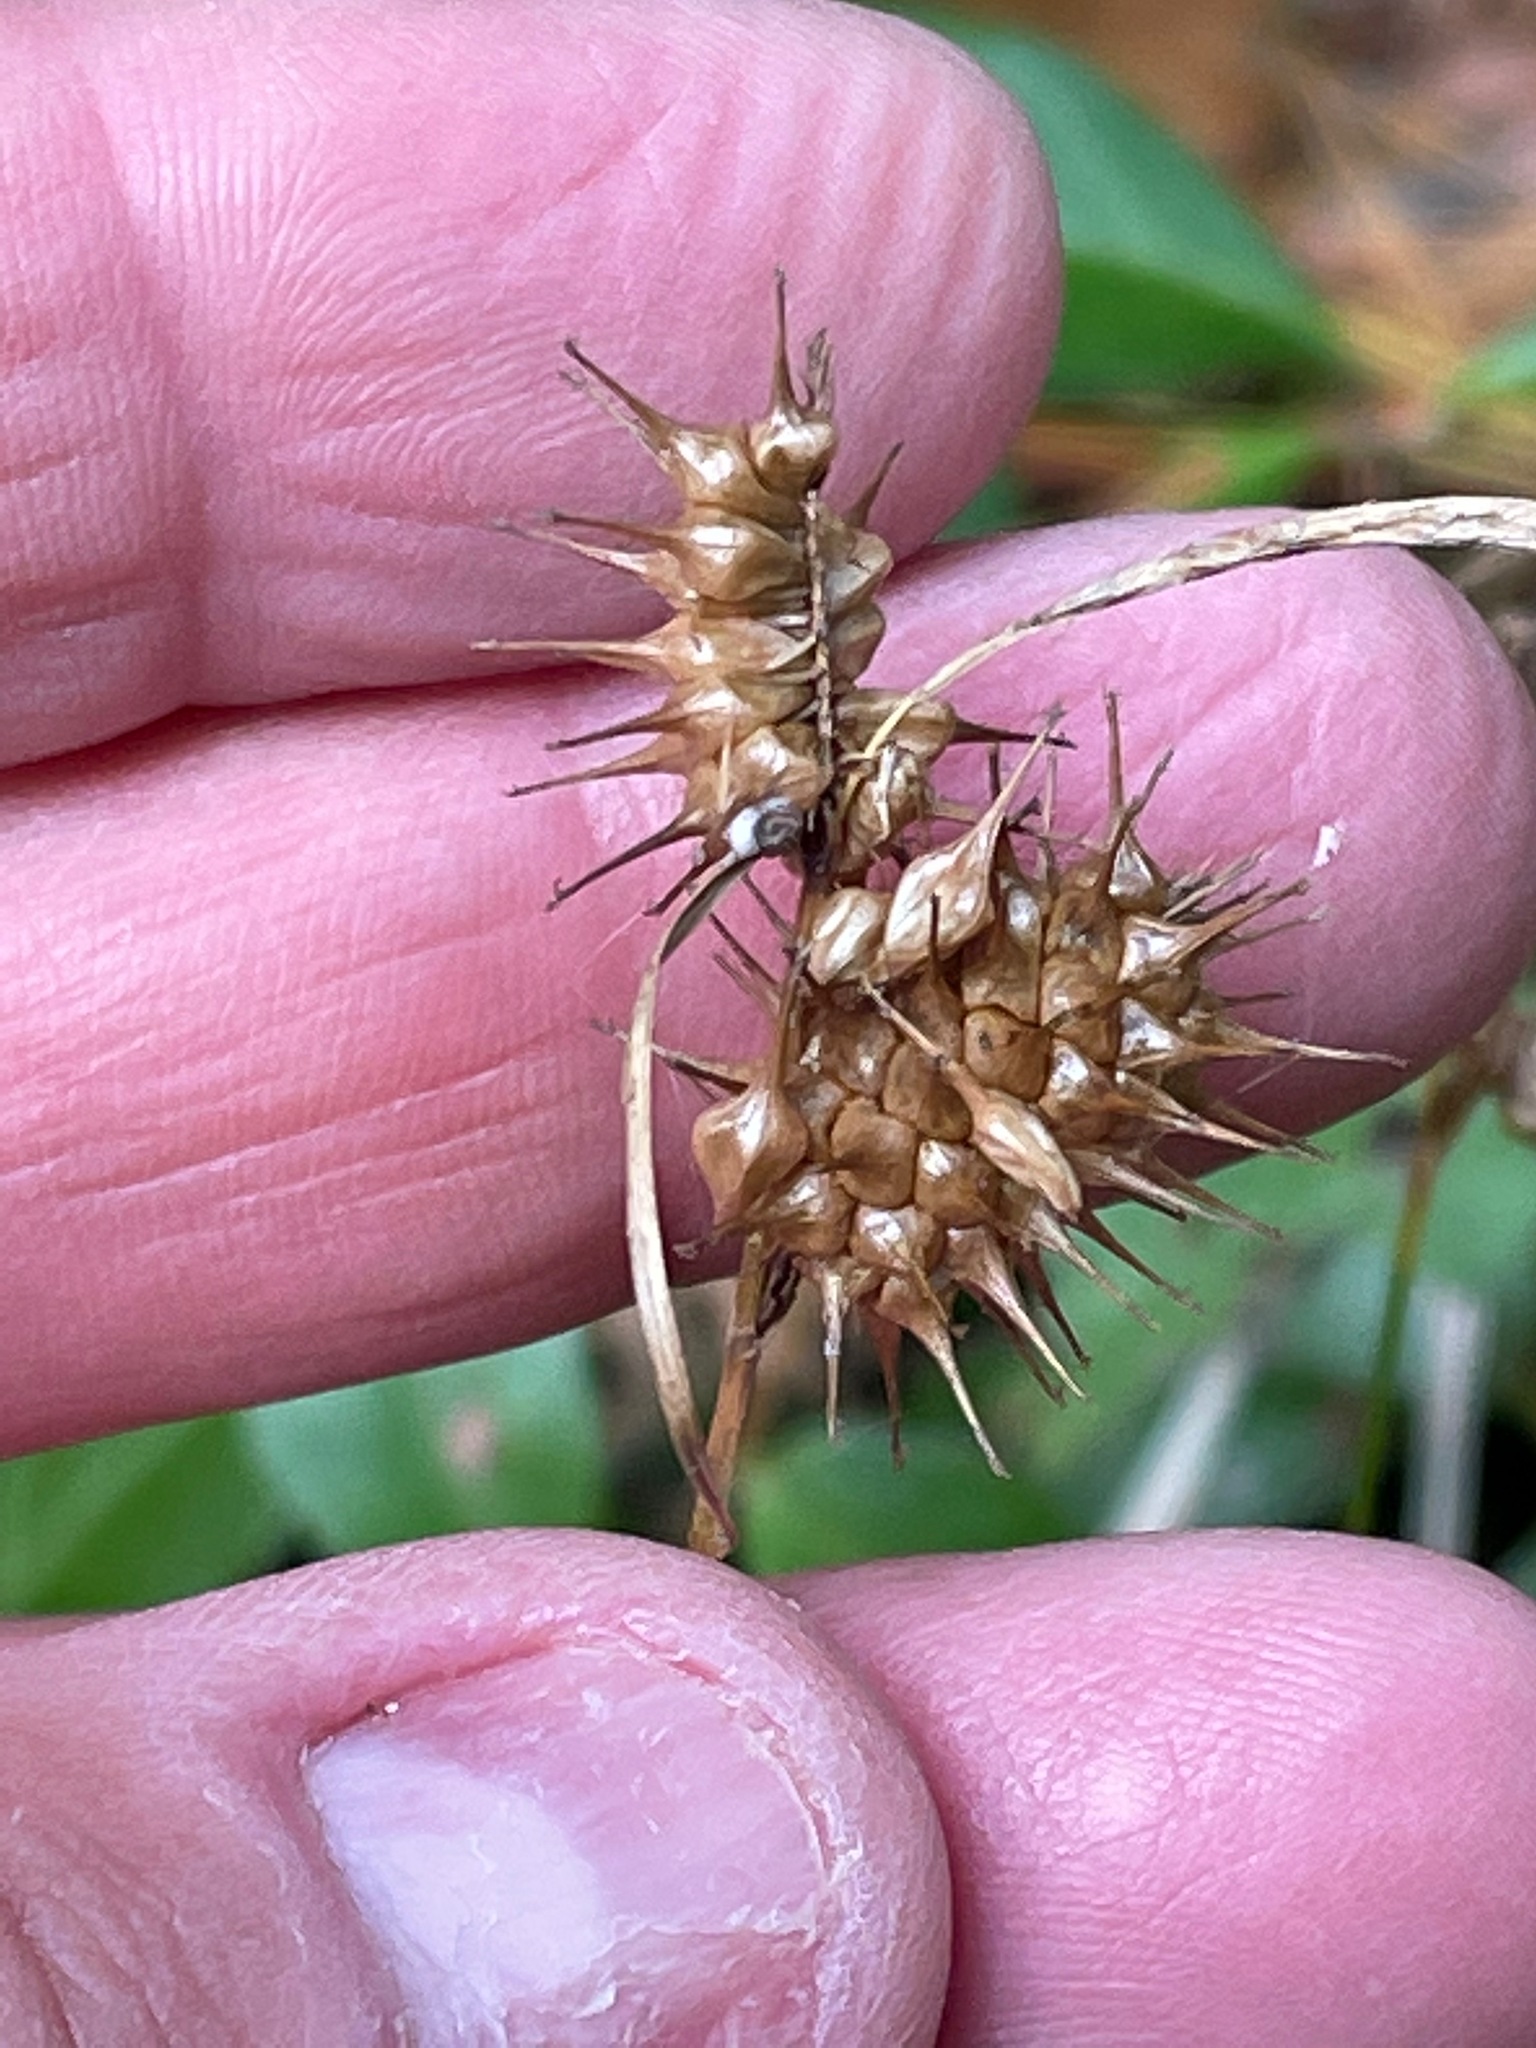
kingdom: Plantae
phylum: Tracheophyta
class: Liliopsida
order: Poales
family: Cyperaceae
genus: Carex
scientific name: Carex lurida
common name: Sallow sedge
